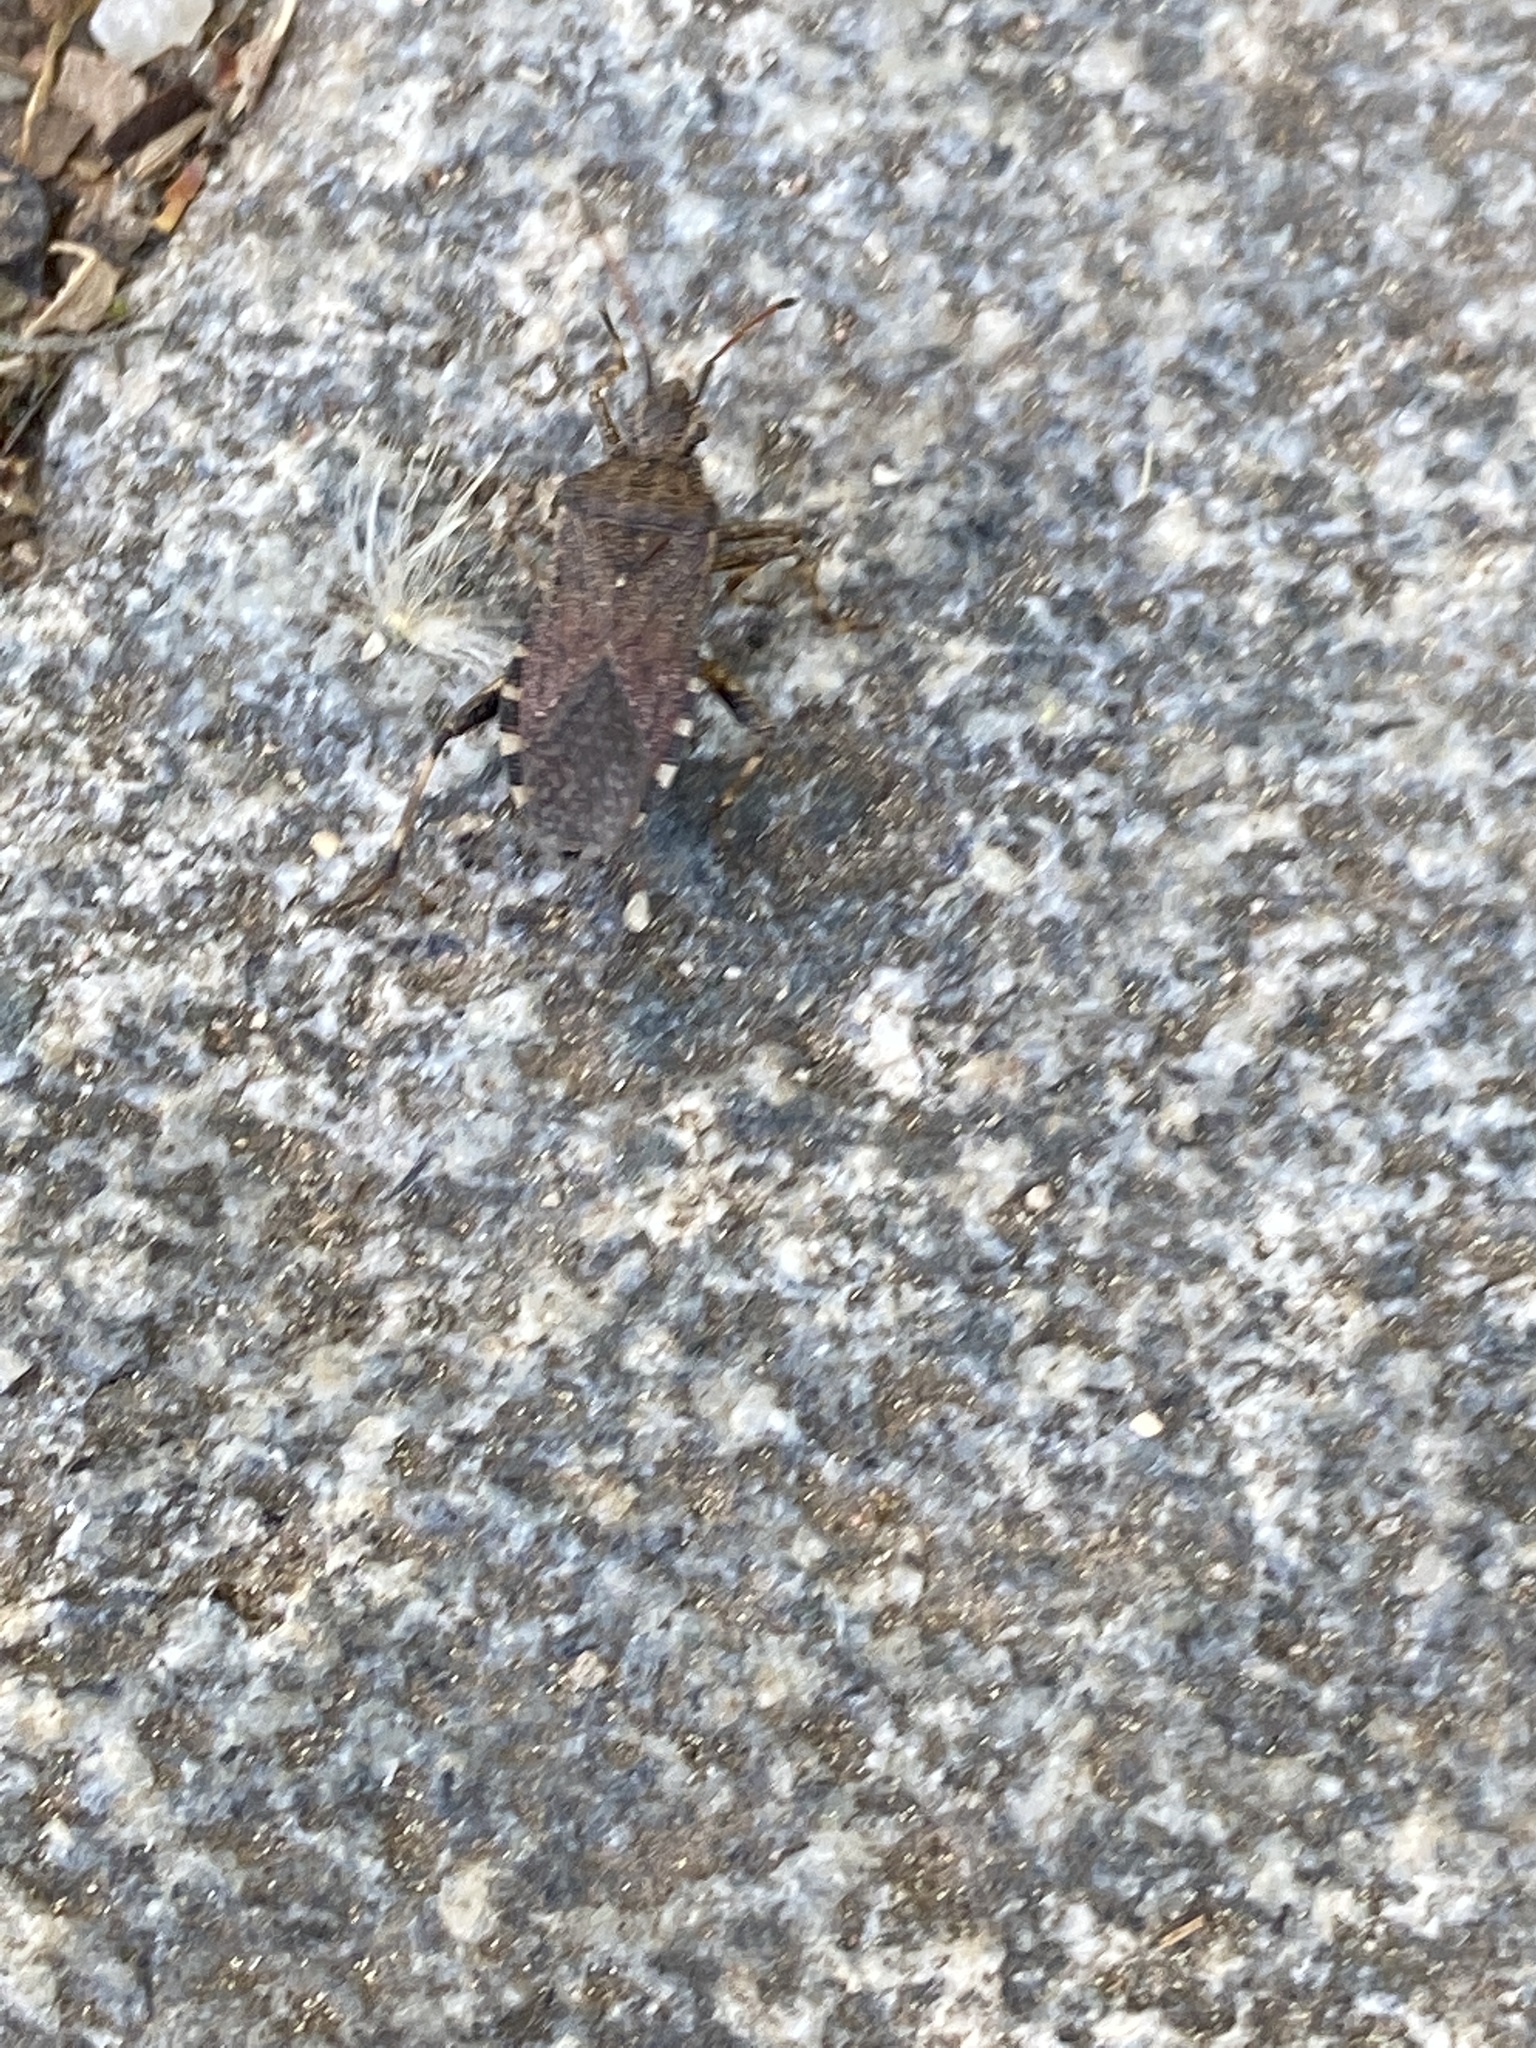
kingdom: Animalia
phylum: Arthropoda
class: Insecta
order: Hemiptera
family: Coreidae
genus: Ceraleptus
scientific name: Ceraleptus gracilicornis
